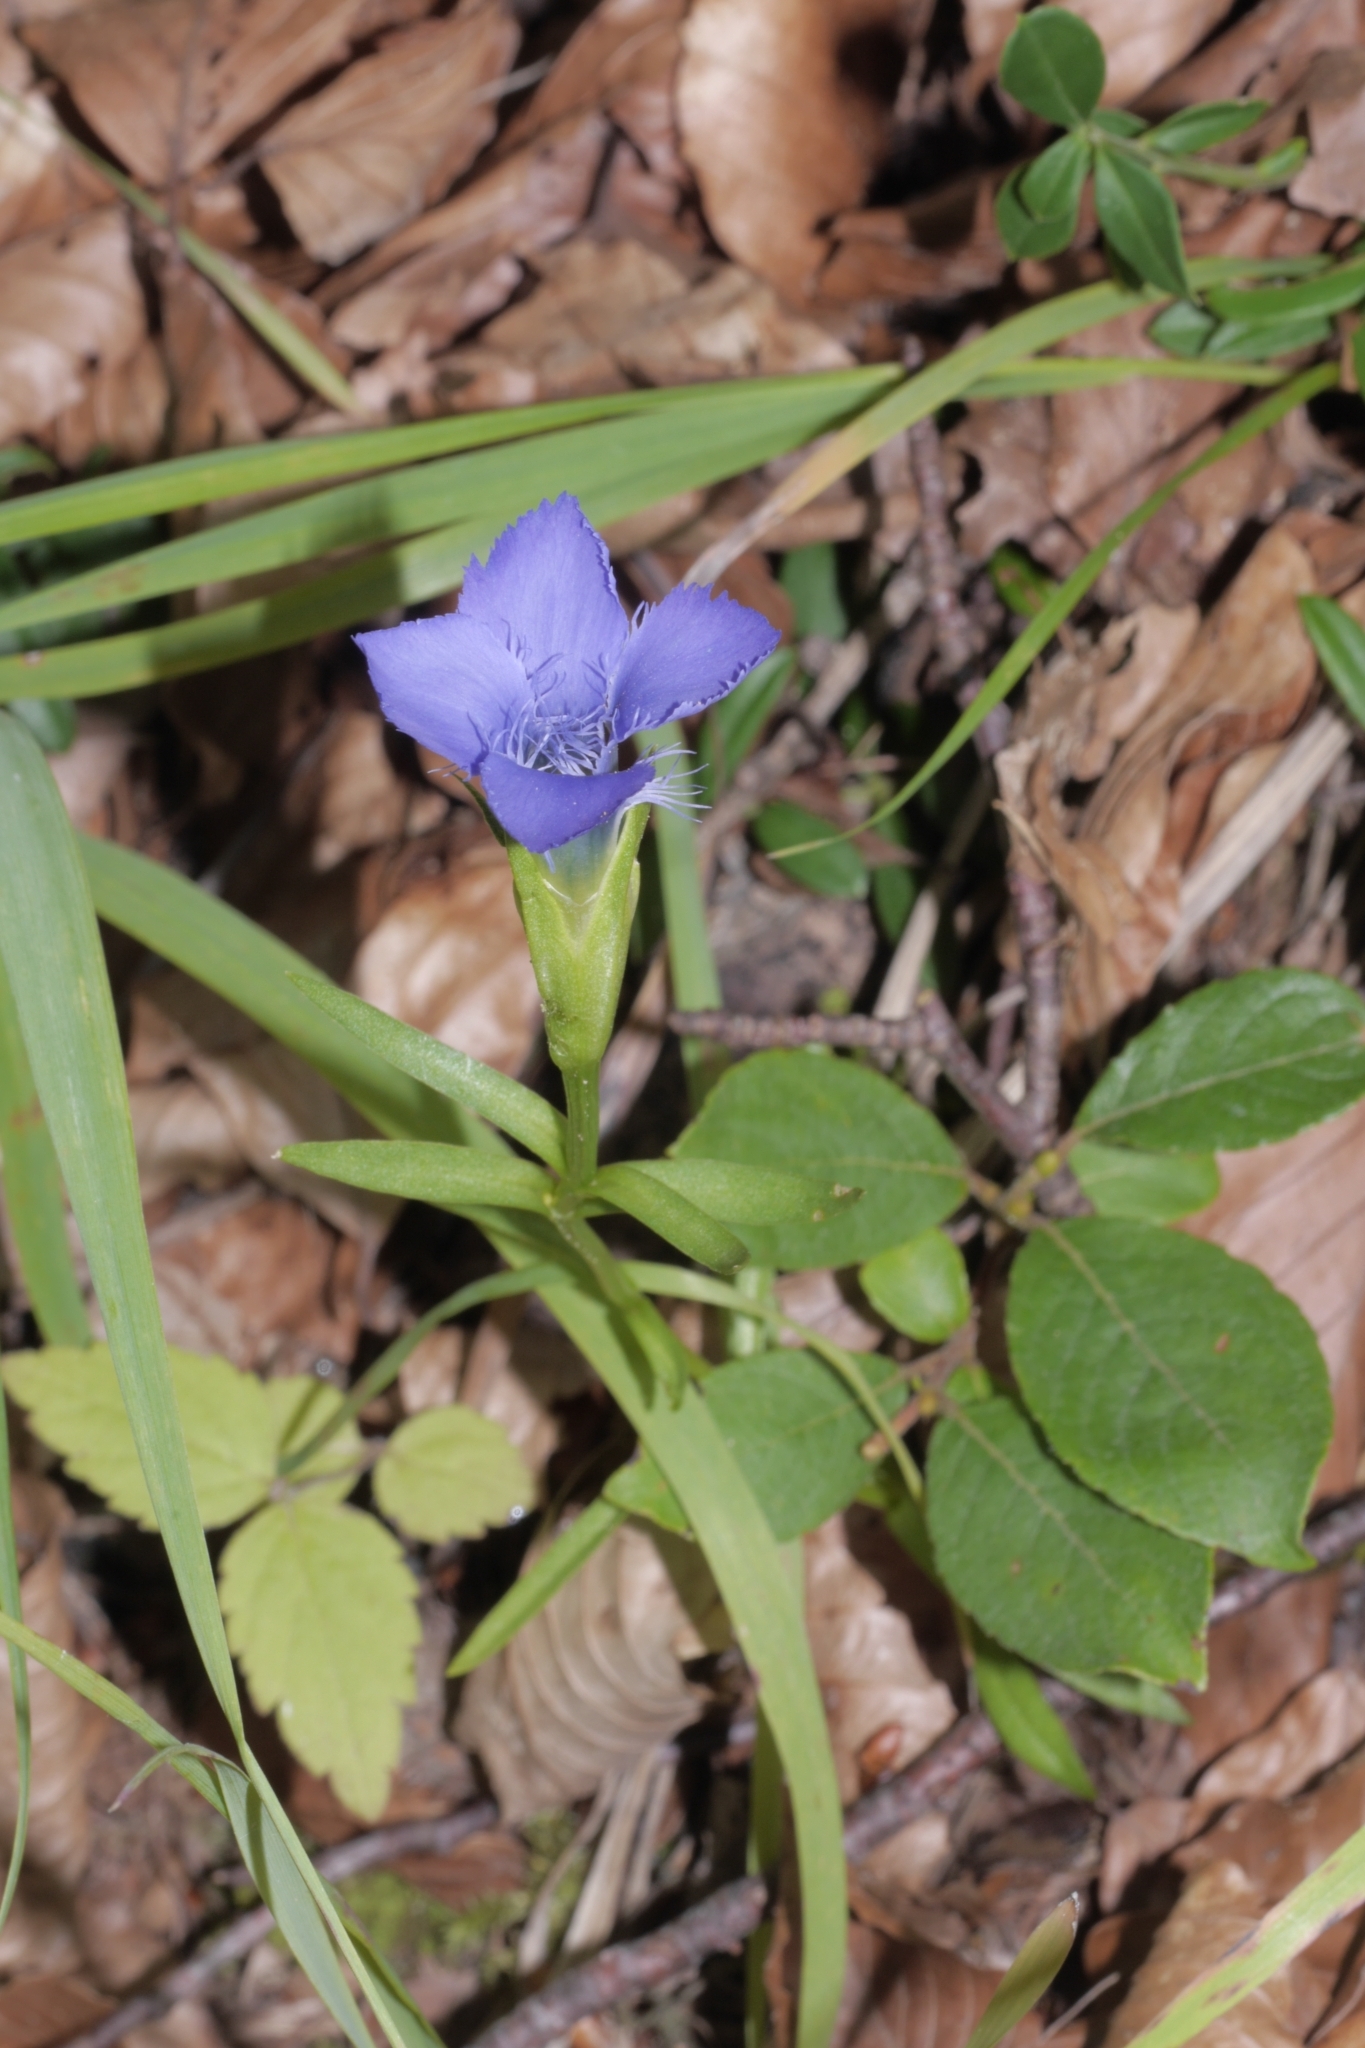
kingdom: Plantae
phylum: Tracheophyta
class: Magnoliopsida
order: Gentianales
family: Gentianaceae
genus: Gentianopsis
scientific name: Gentianopsis ciliata
